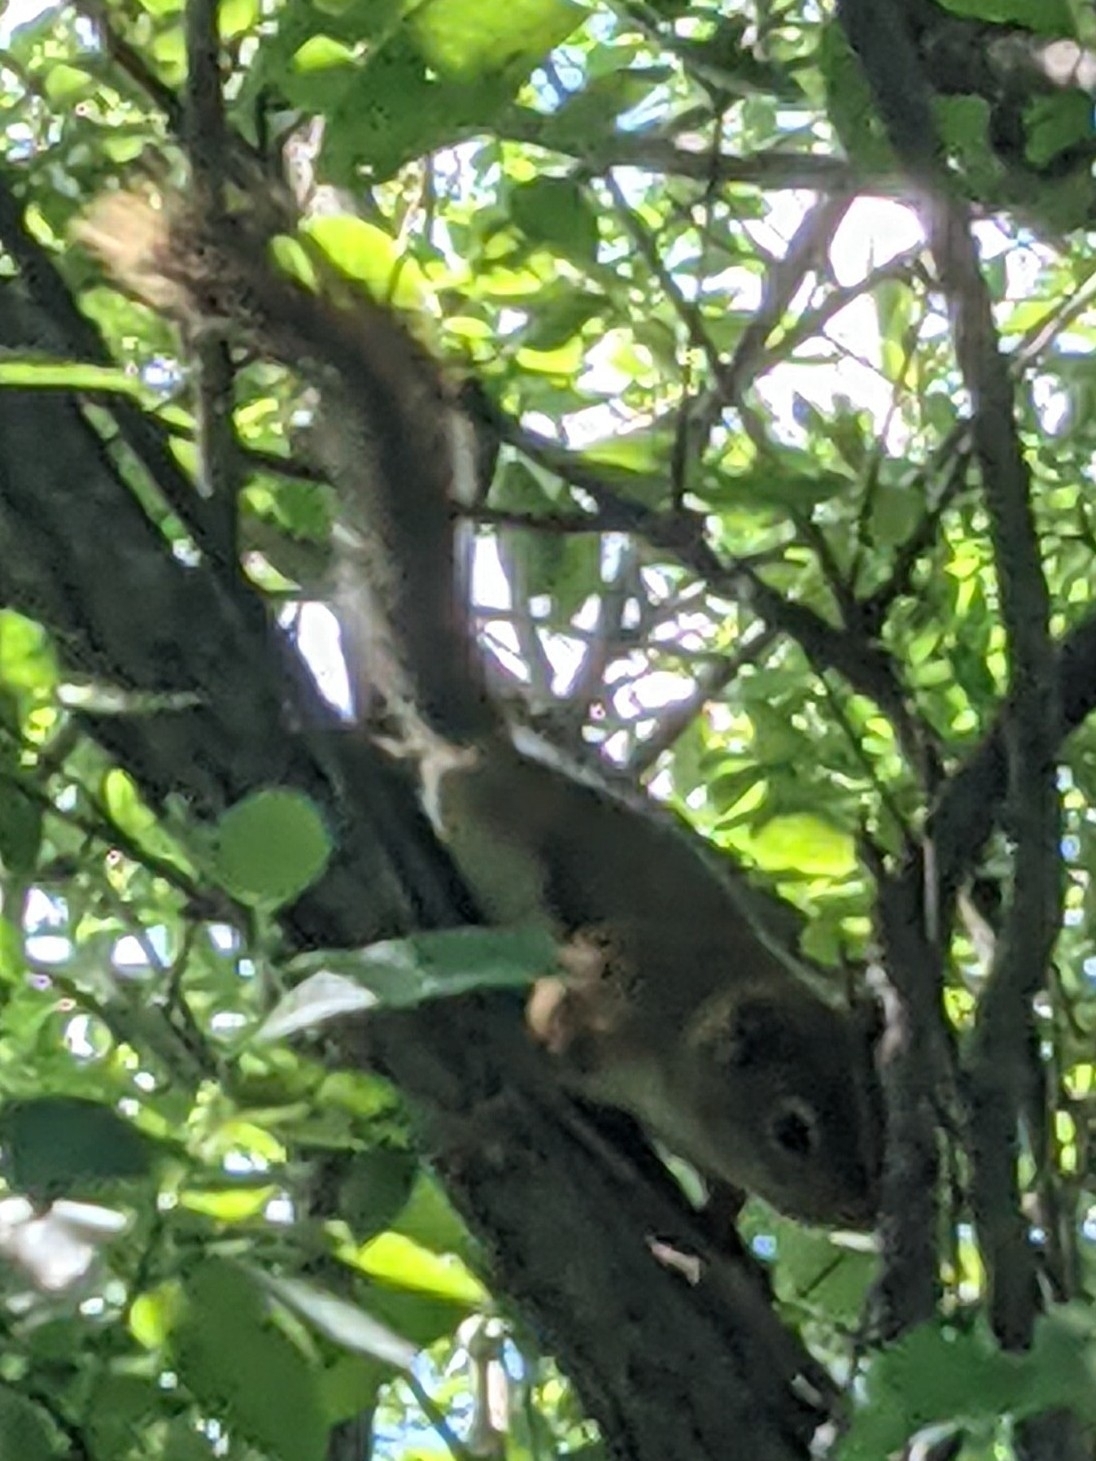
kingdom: Animalia
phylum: Chordata
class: Mammalia
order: Rodentia
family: Sciuridae
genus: Tamiasciurus
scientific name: Tamiasciurus hudsonicus
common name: Red squirrel
